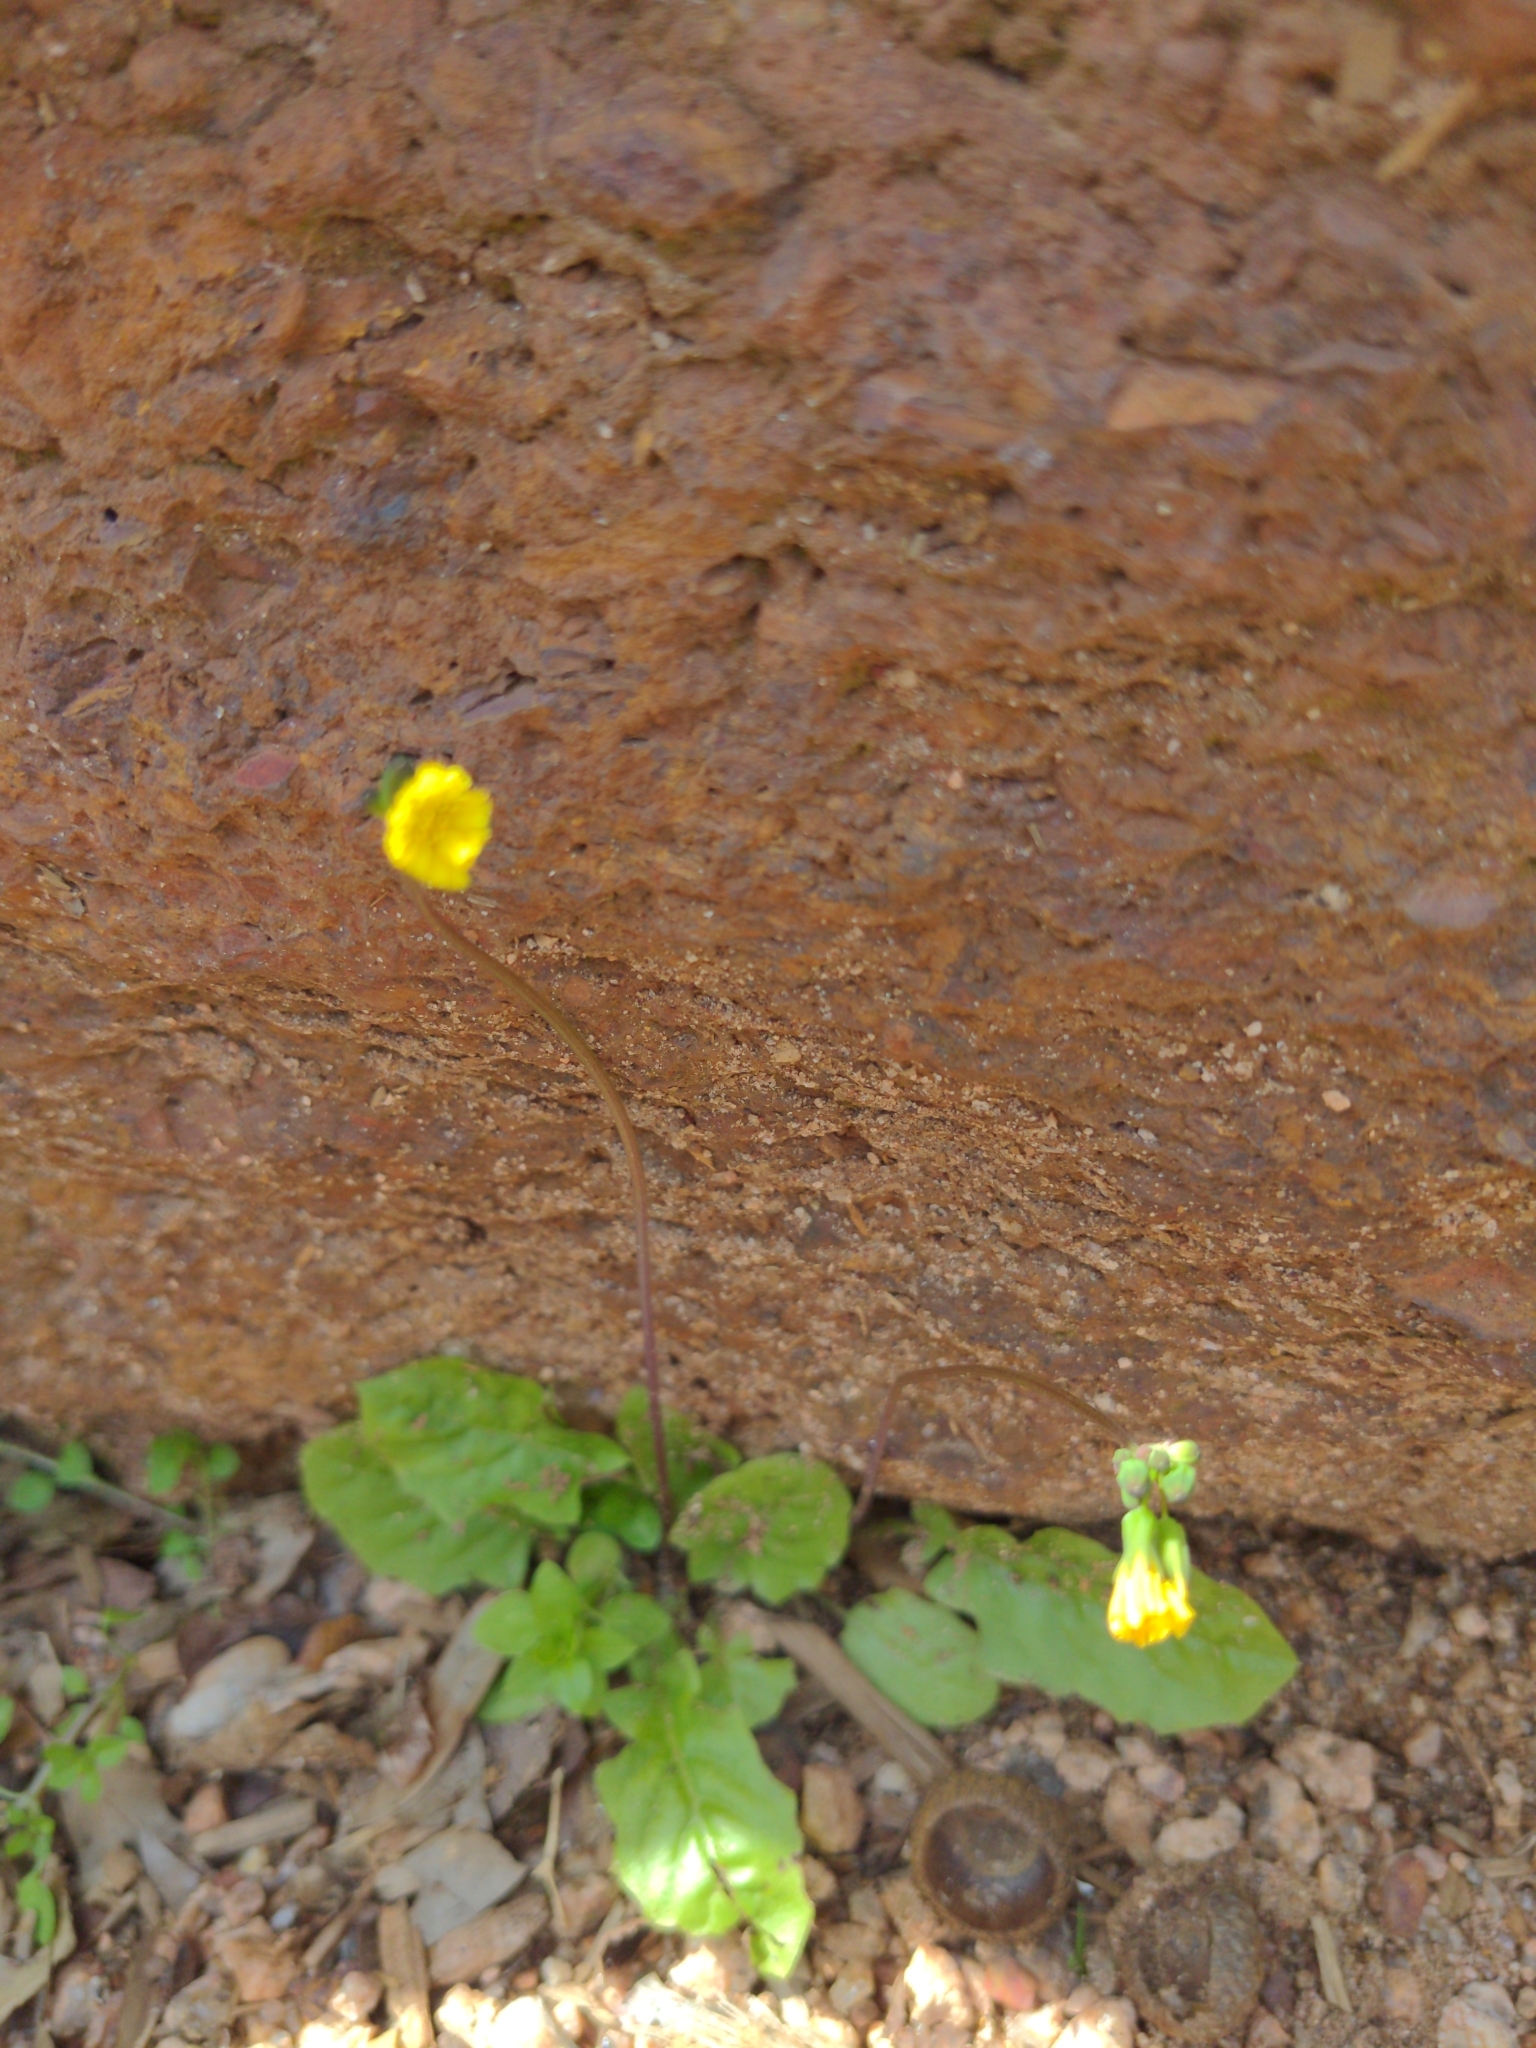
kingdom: Plantae
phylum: Tracheophyta
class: Magnoliopsida
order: Asterales
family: Asteraceae
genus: Youngia
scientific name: Youngia japonica
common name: Oriental false hawksbeard
